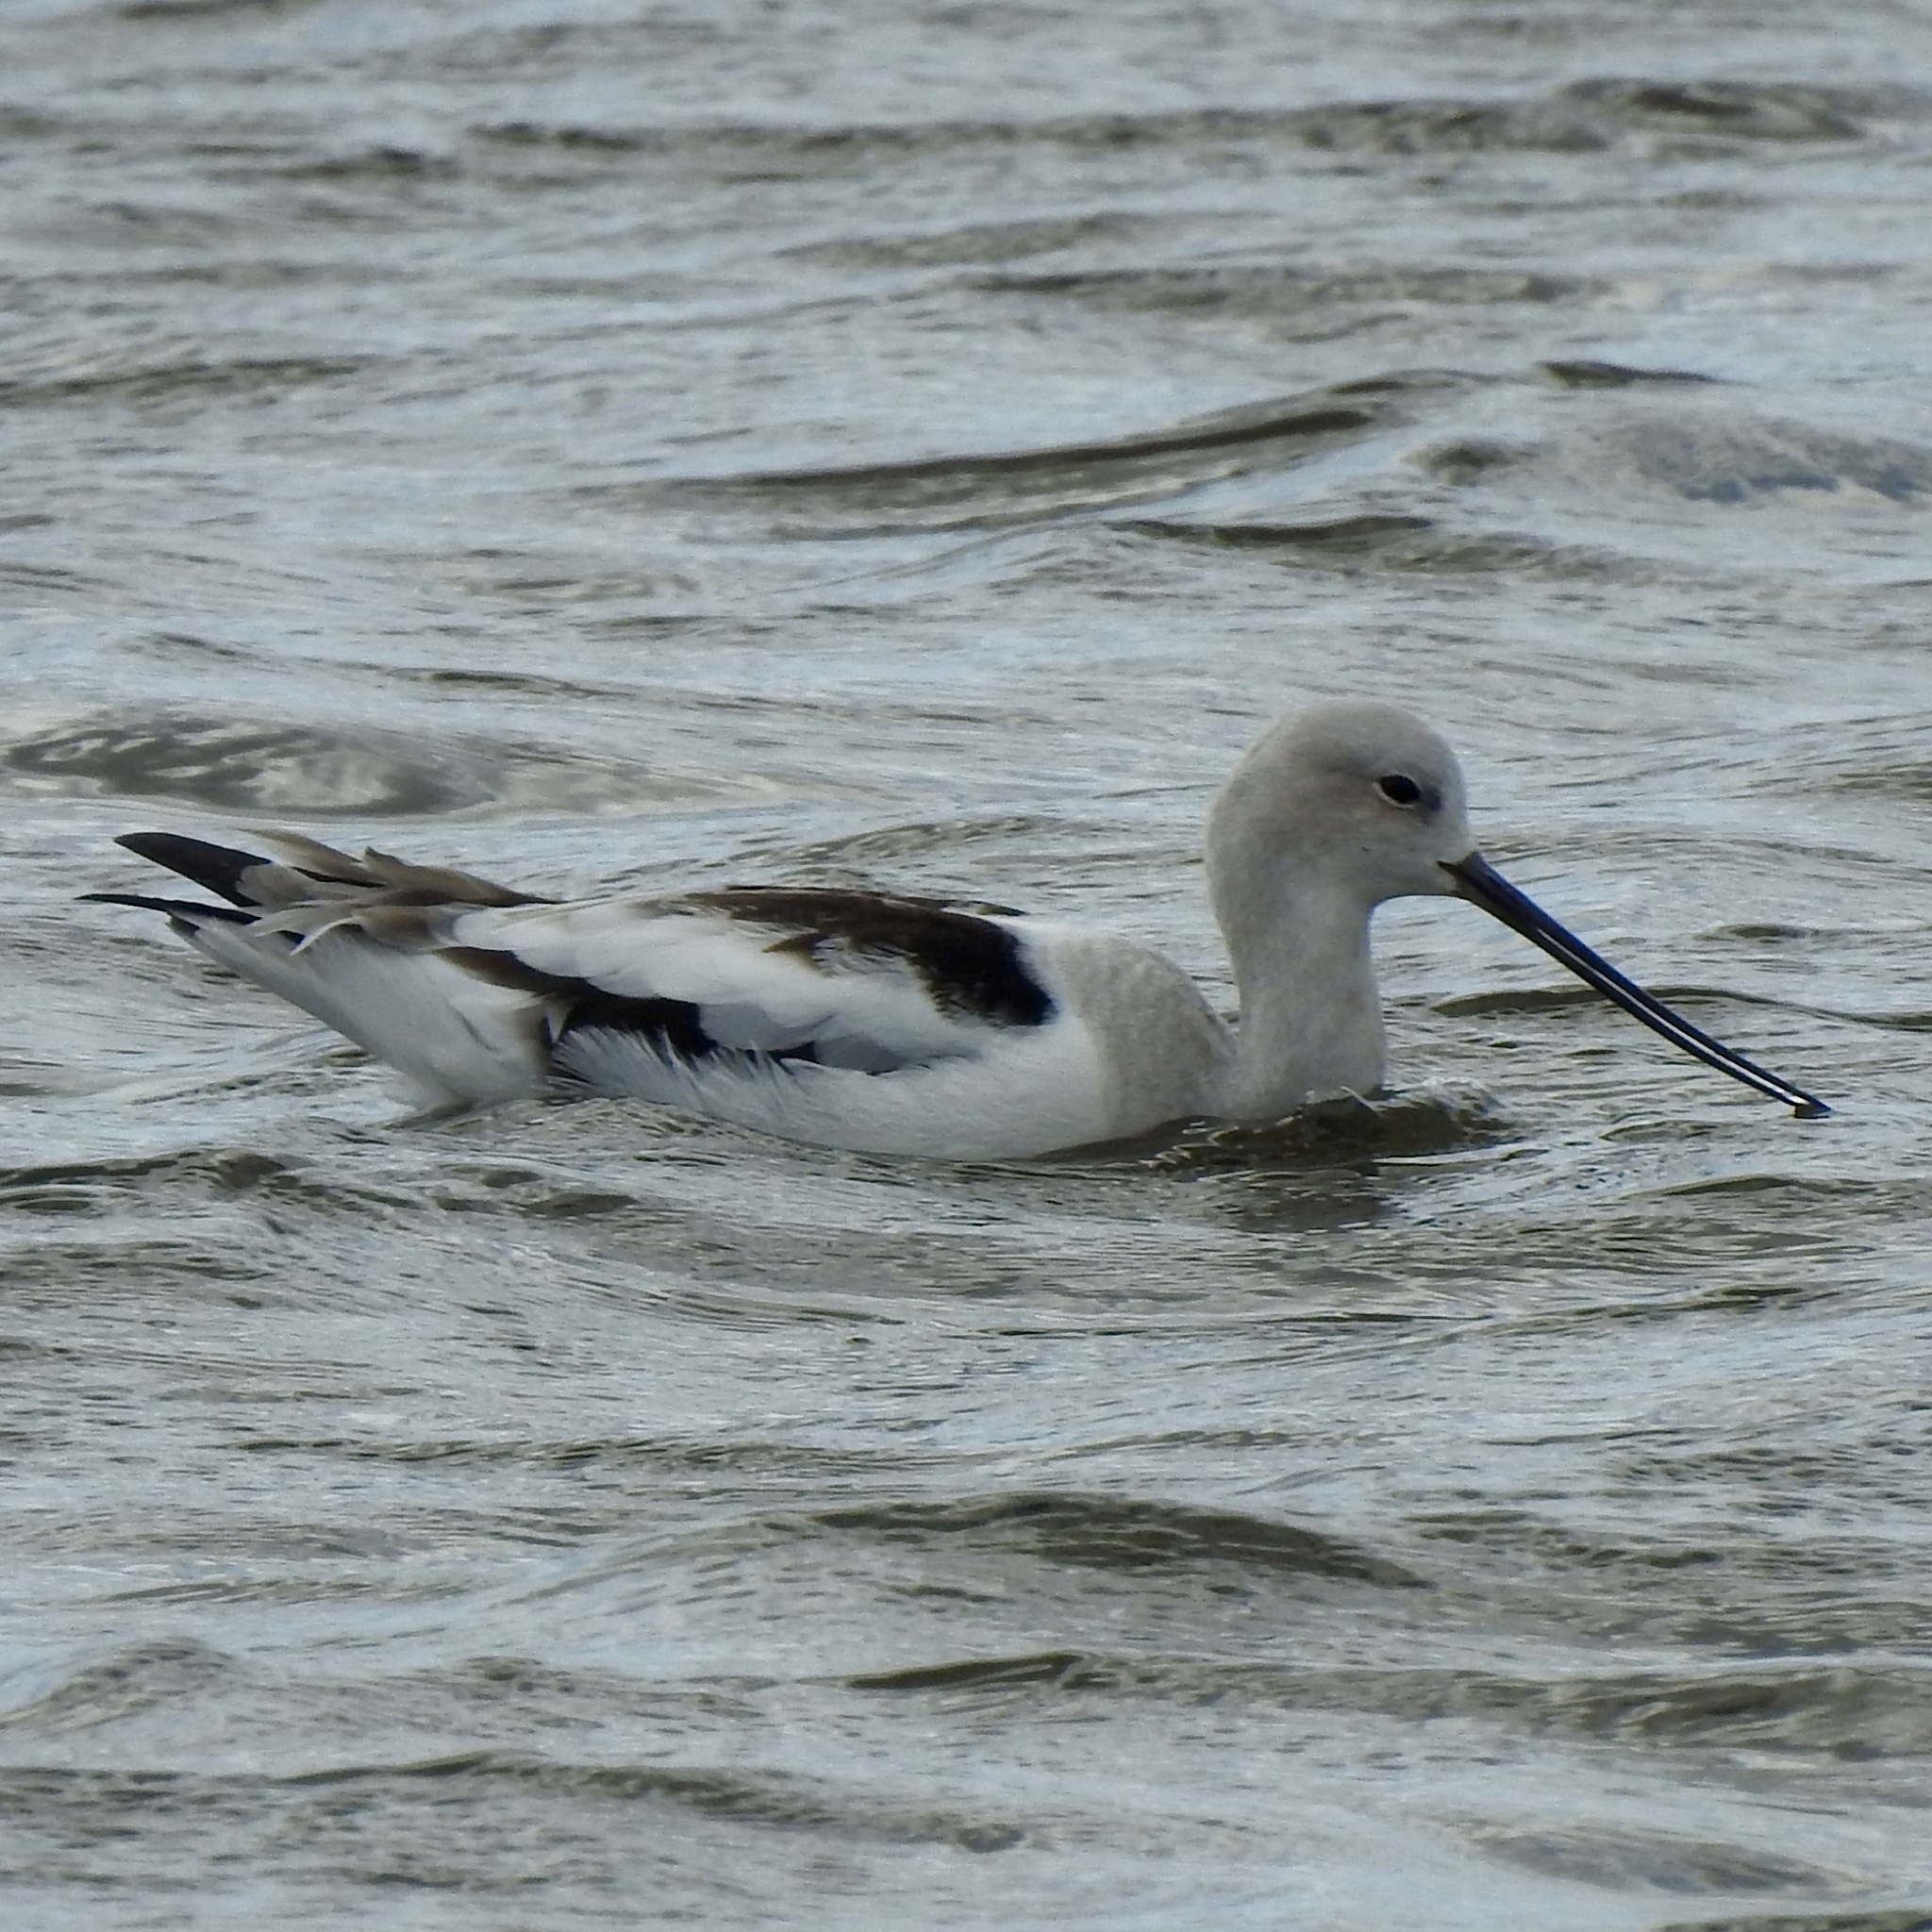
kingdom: Animalia
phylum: Chordata
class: Aves
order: Charadriiformes
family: Recurvirostridae
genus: Recurvirostra
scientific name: Recurvirostra americana
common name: American avocet
